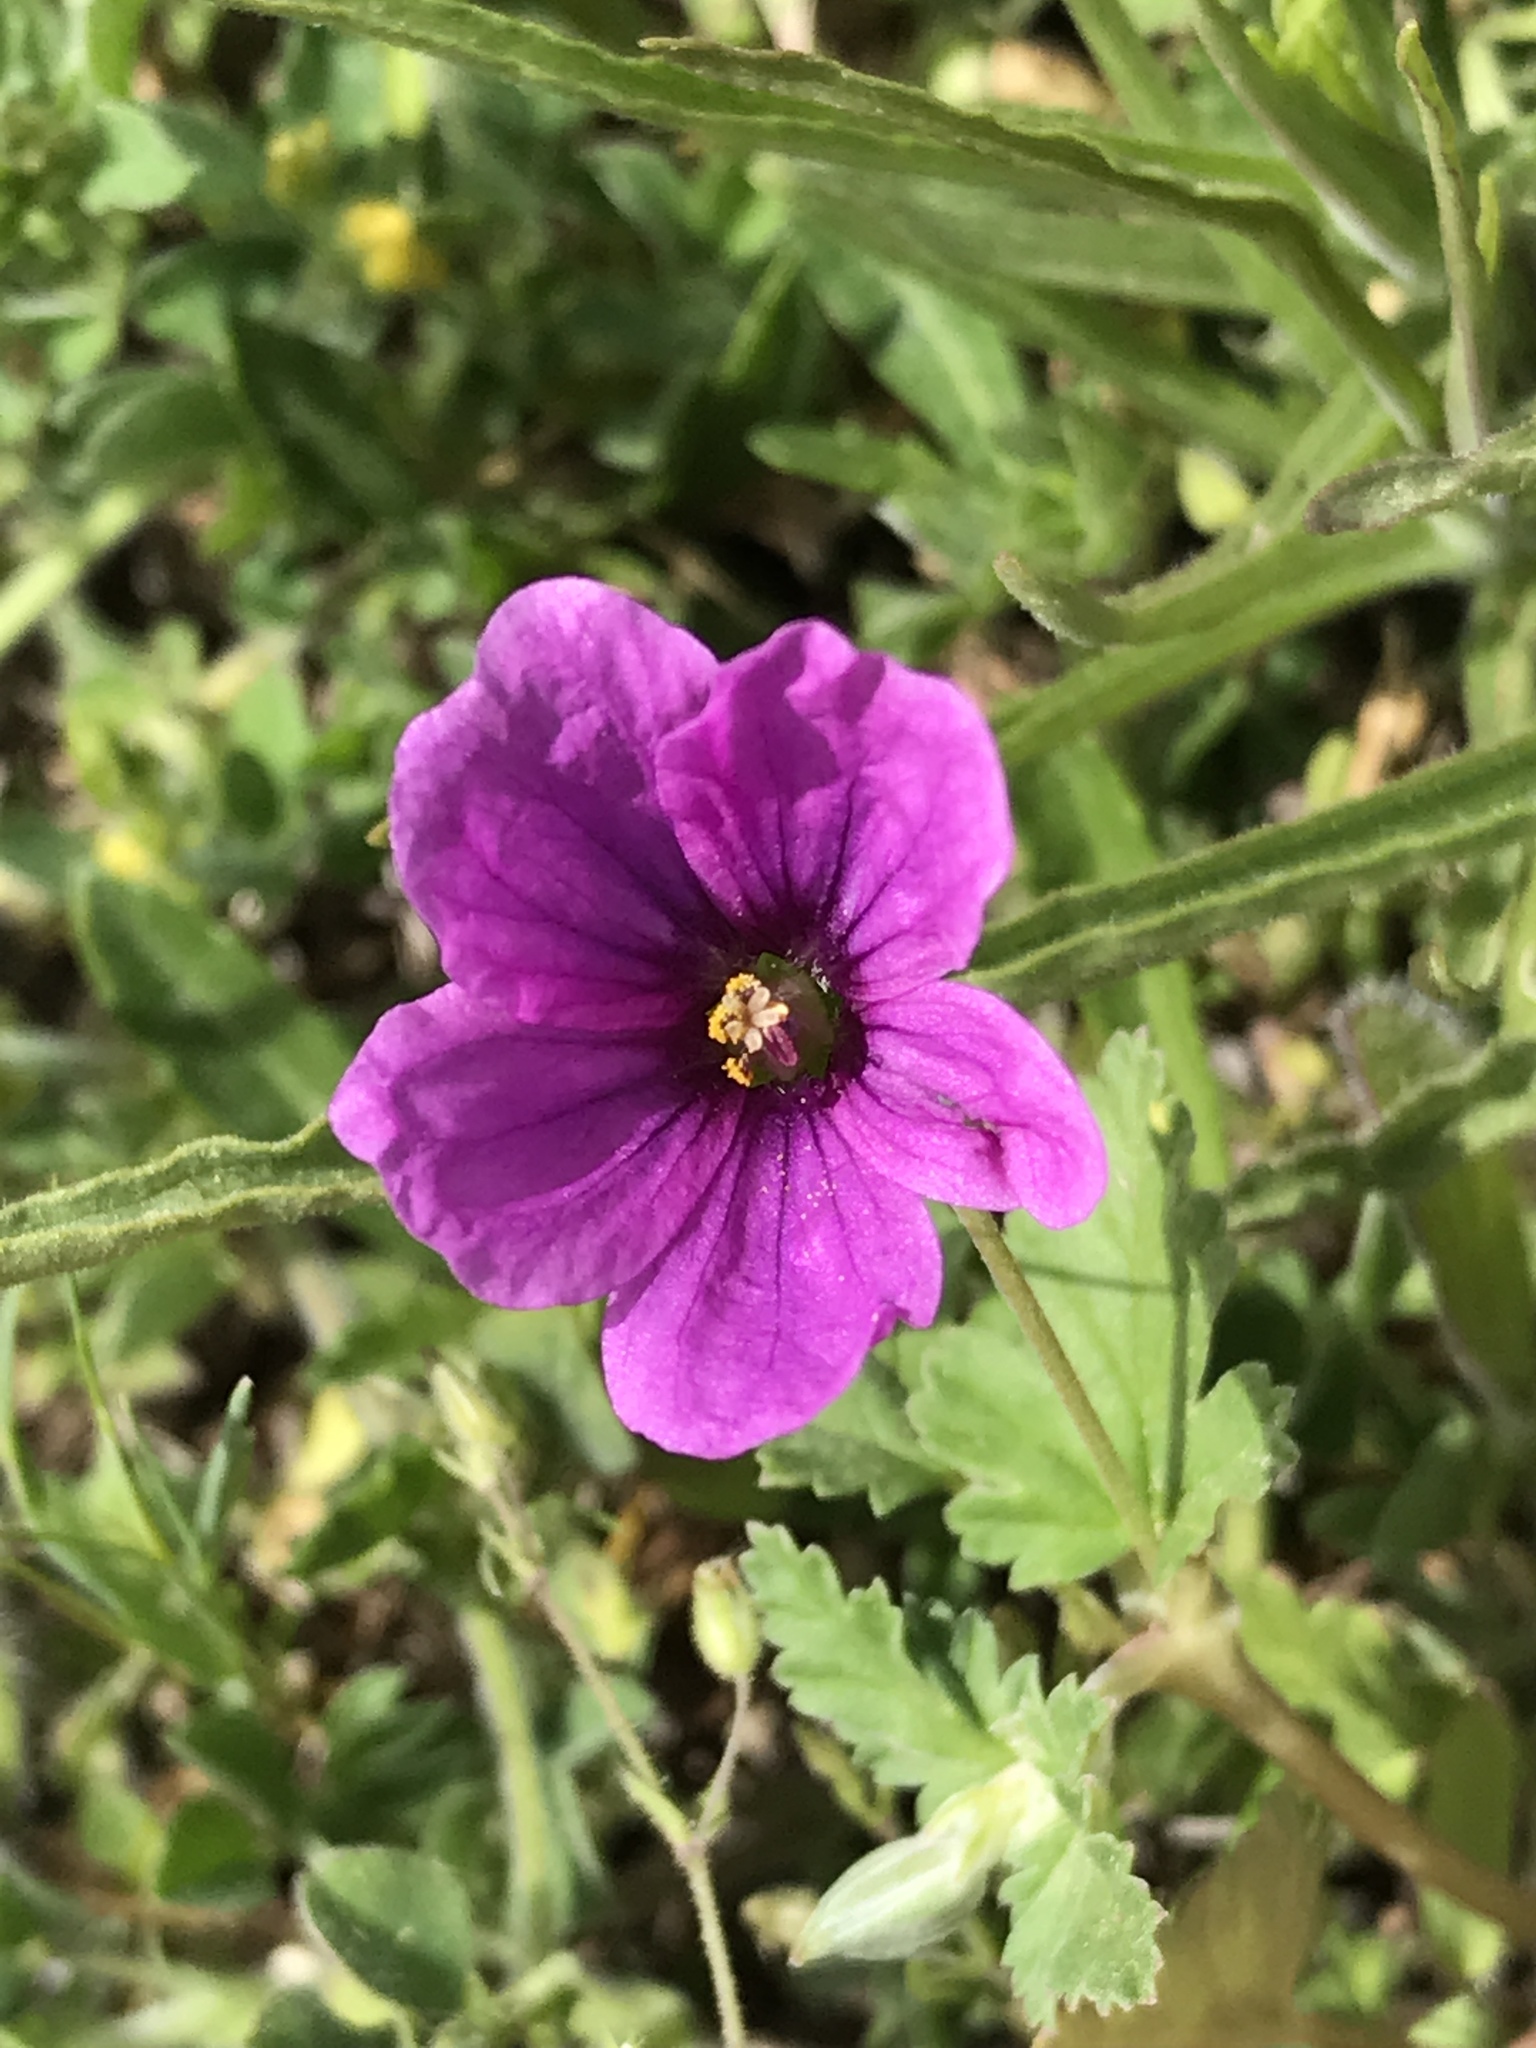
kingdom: Plantae
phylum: Tracheophyta
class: Magnoliopsida
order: Geraniales
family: Geraniaceae
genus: Erodium
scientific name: Erodium texanum
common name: Texas stork's-bill
